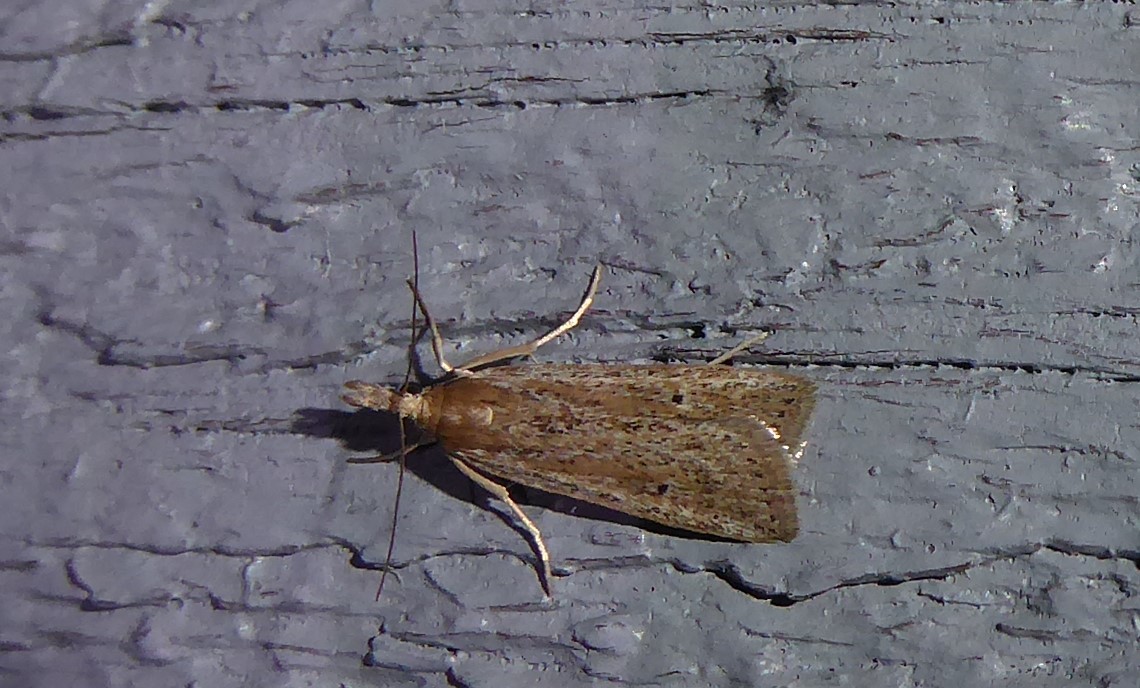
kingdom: Animalia
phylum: Arthropoda
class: Insecta
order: Lepidoptera
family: Crambidae
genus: Eudonia
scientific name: Eudonia sabulosella
